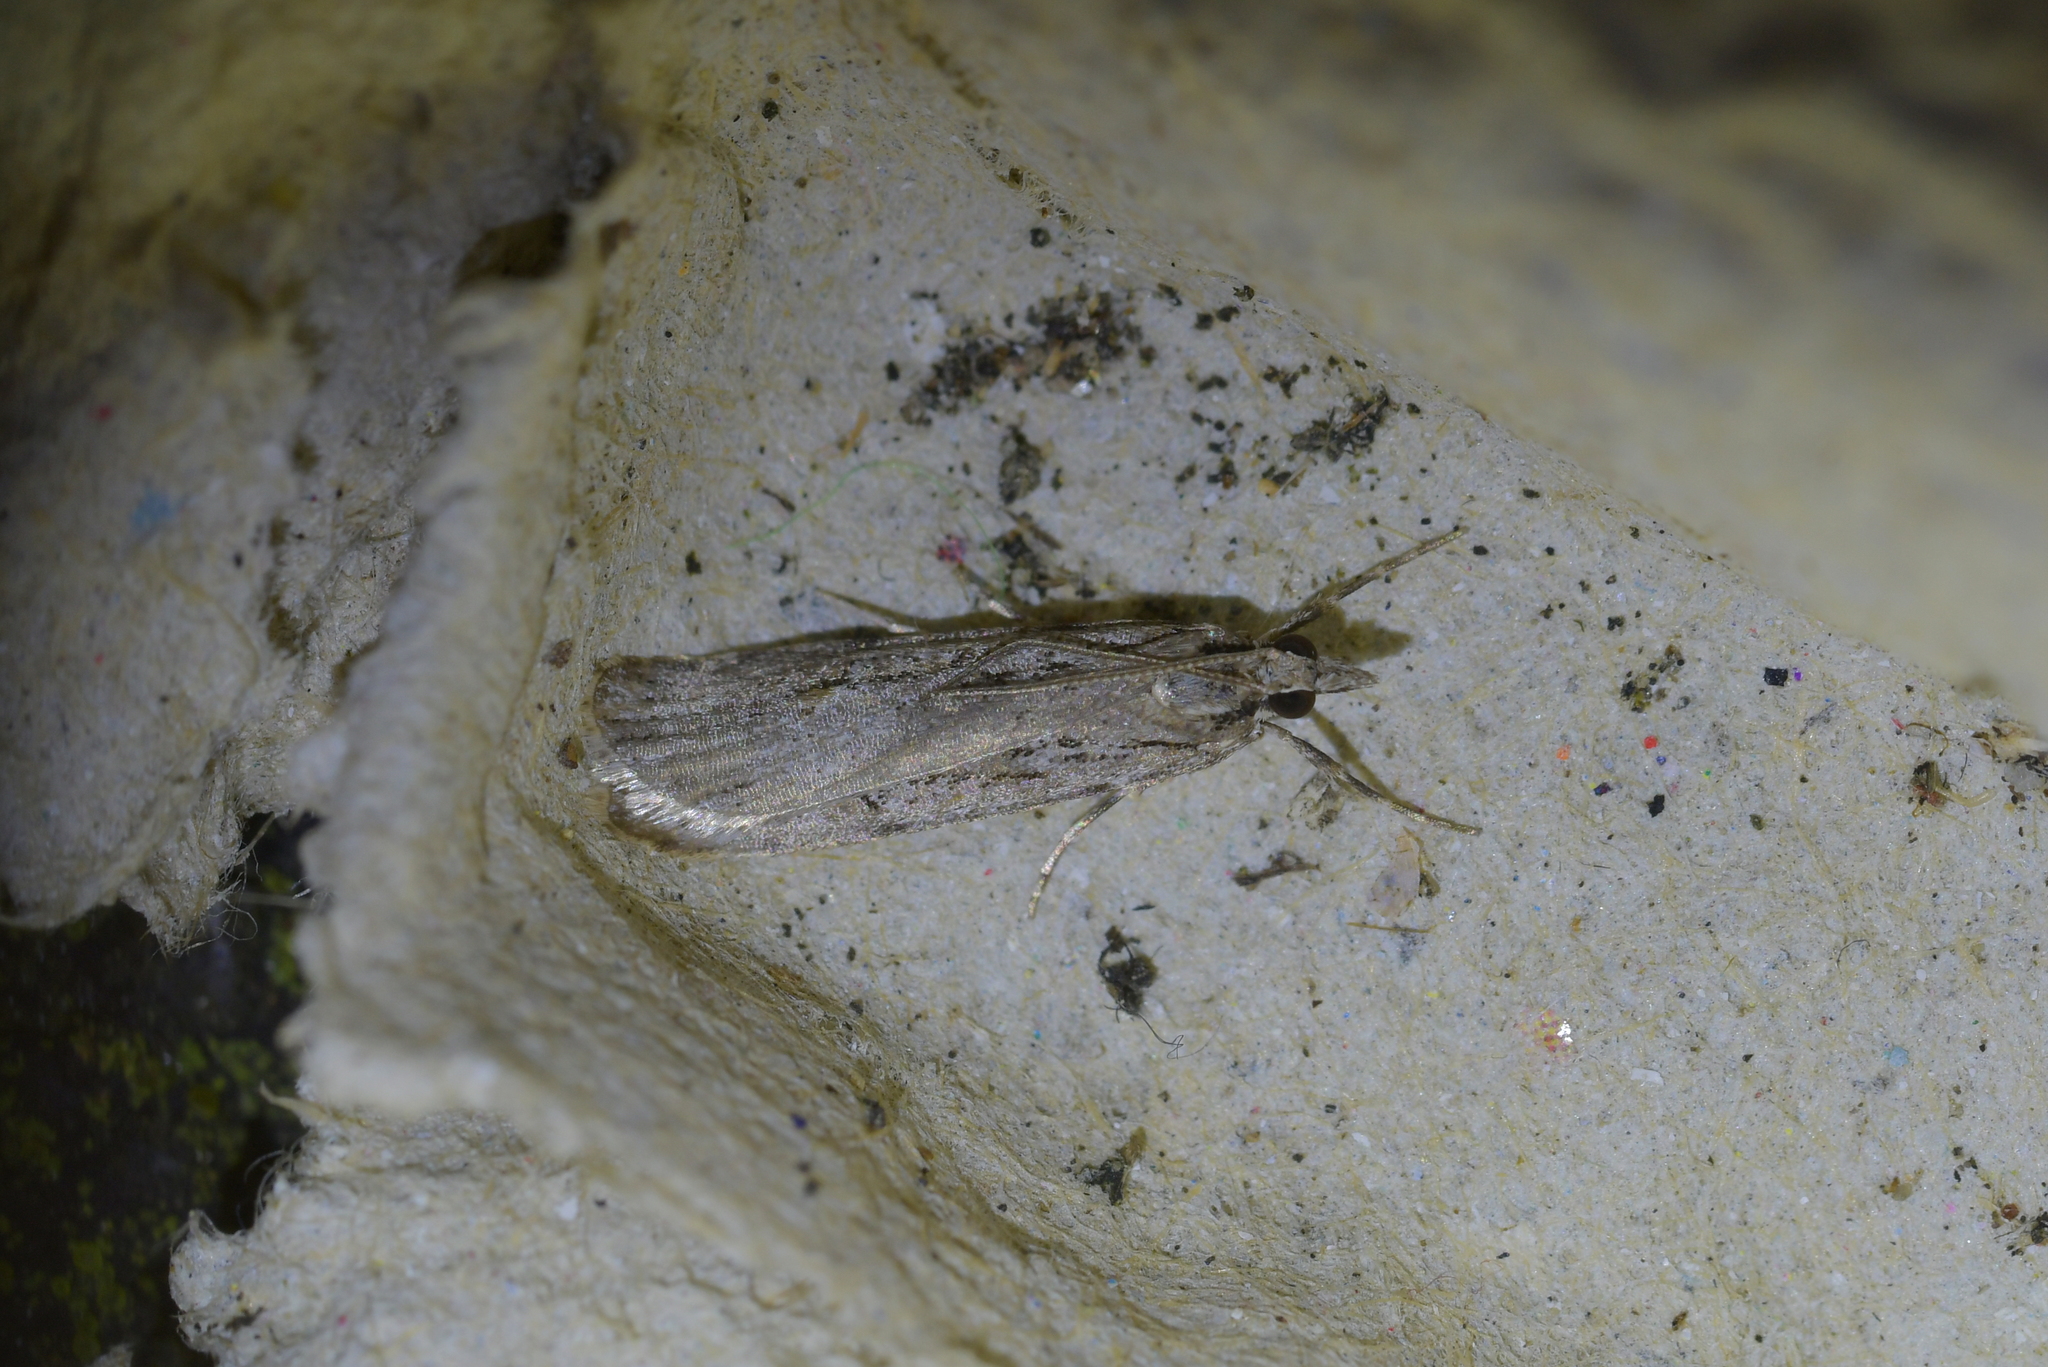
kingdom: Animalia
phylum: Arthropoda
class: Insecta
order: Lepidoptera
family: Crambidae
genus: Scoparia
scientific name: Scoparia chalicodes
